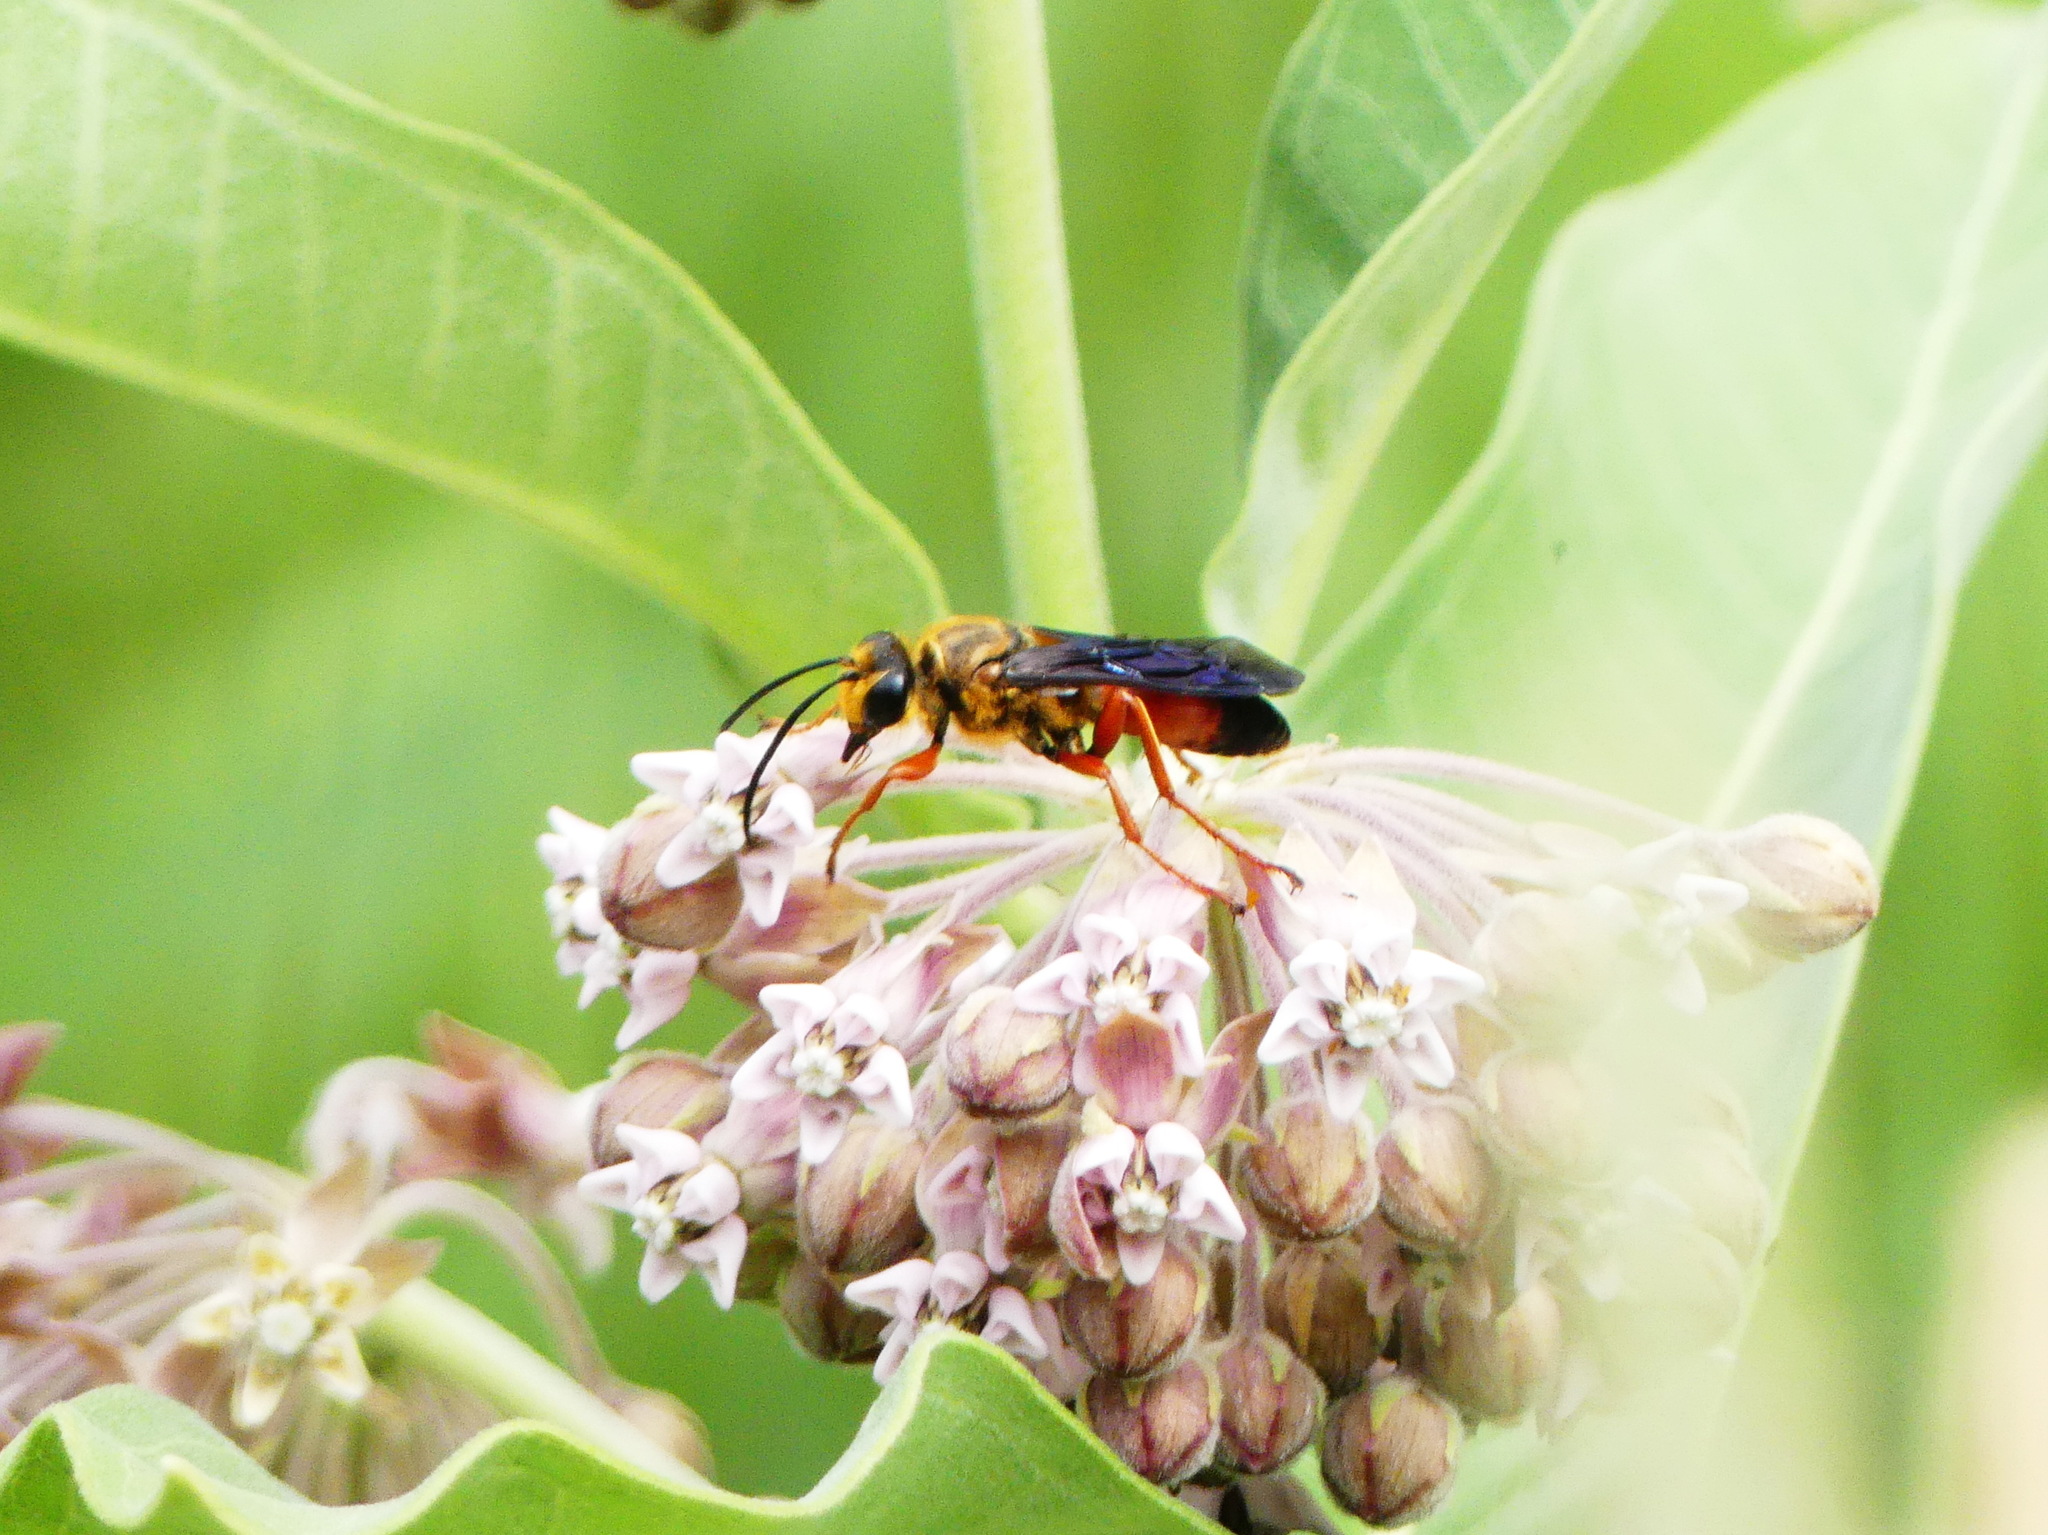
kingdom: Animalia
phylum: Arthropoda
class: Insecta
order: Hymenoptera
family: Sphecidae
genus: Sphex
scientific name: Sphex ichneumoneus
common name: Great golden digger wasp
